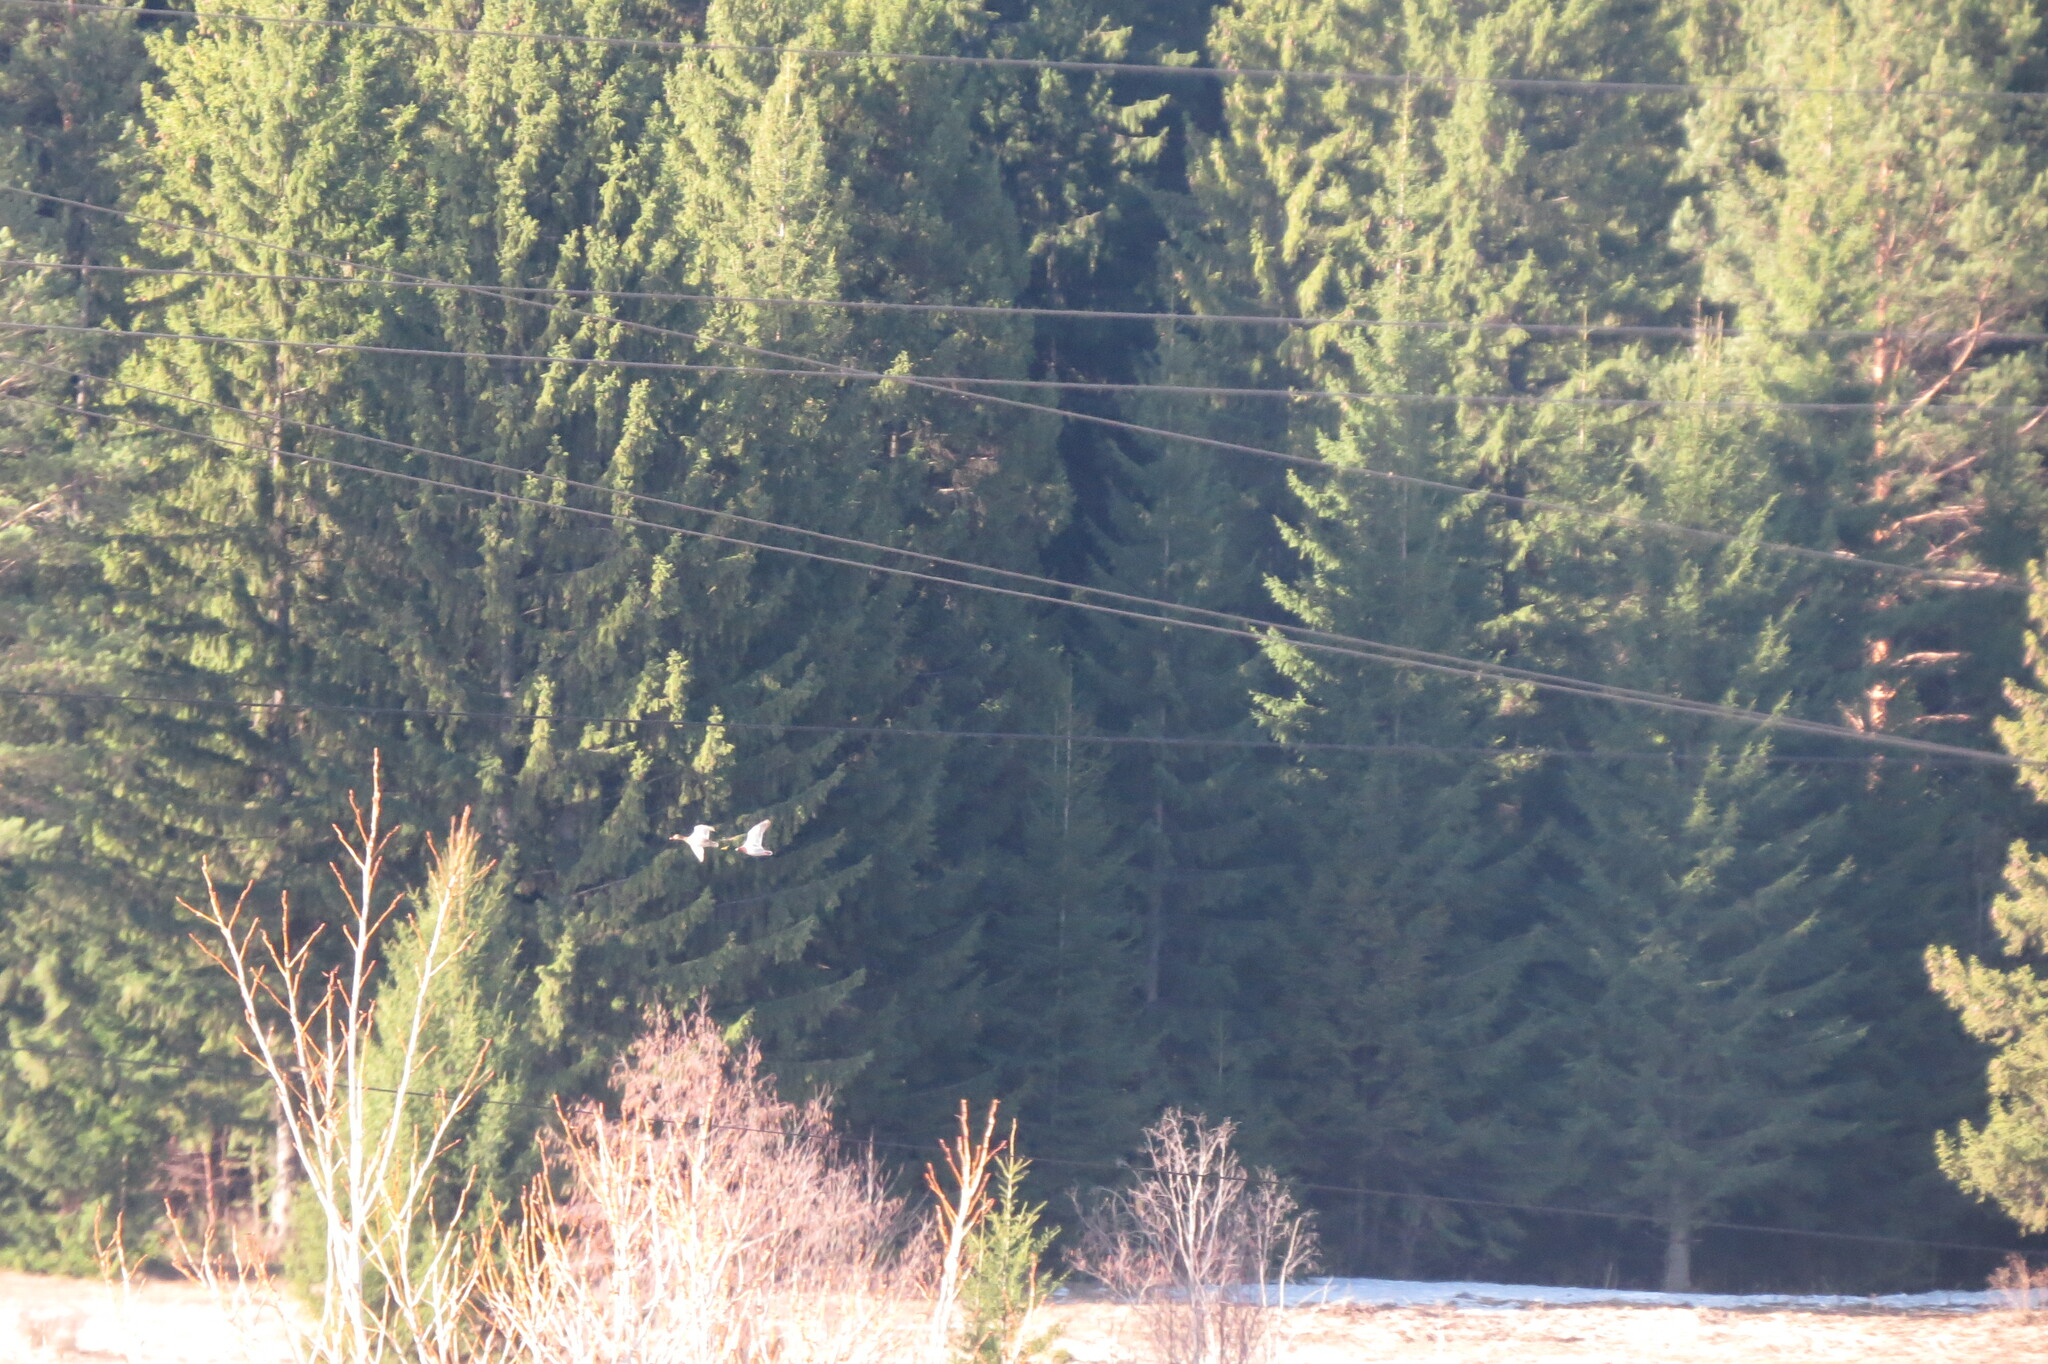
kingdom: Animalia
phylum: Chordata
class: Aves
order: Anseriformes
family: Anatidae
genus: Anas
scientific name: Anas platyrhynchos
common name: Mallard
